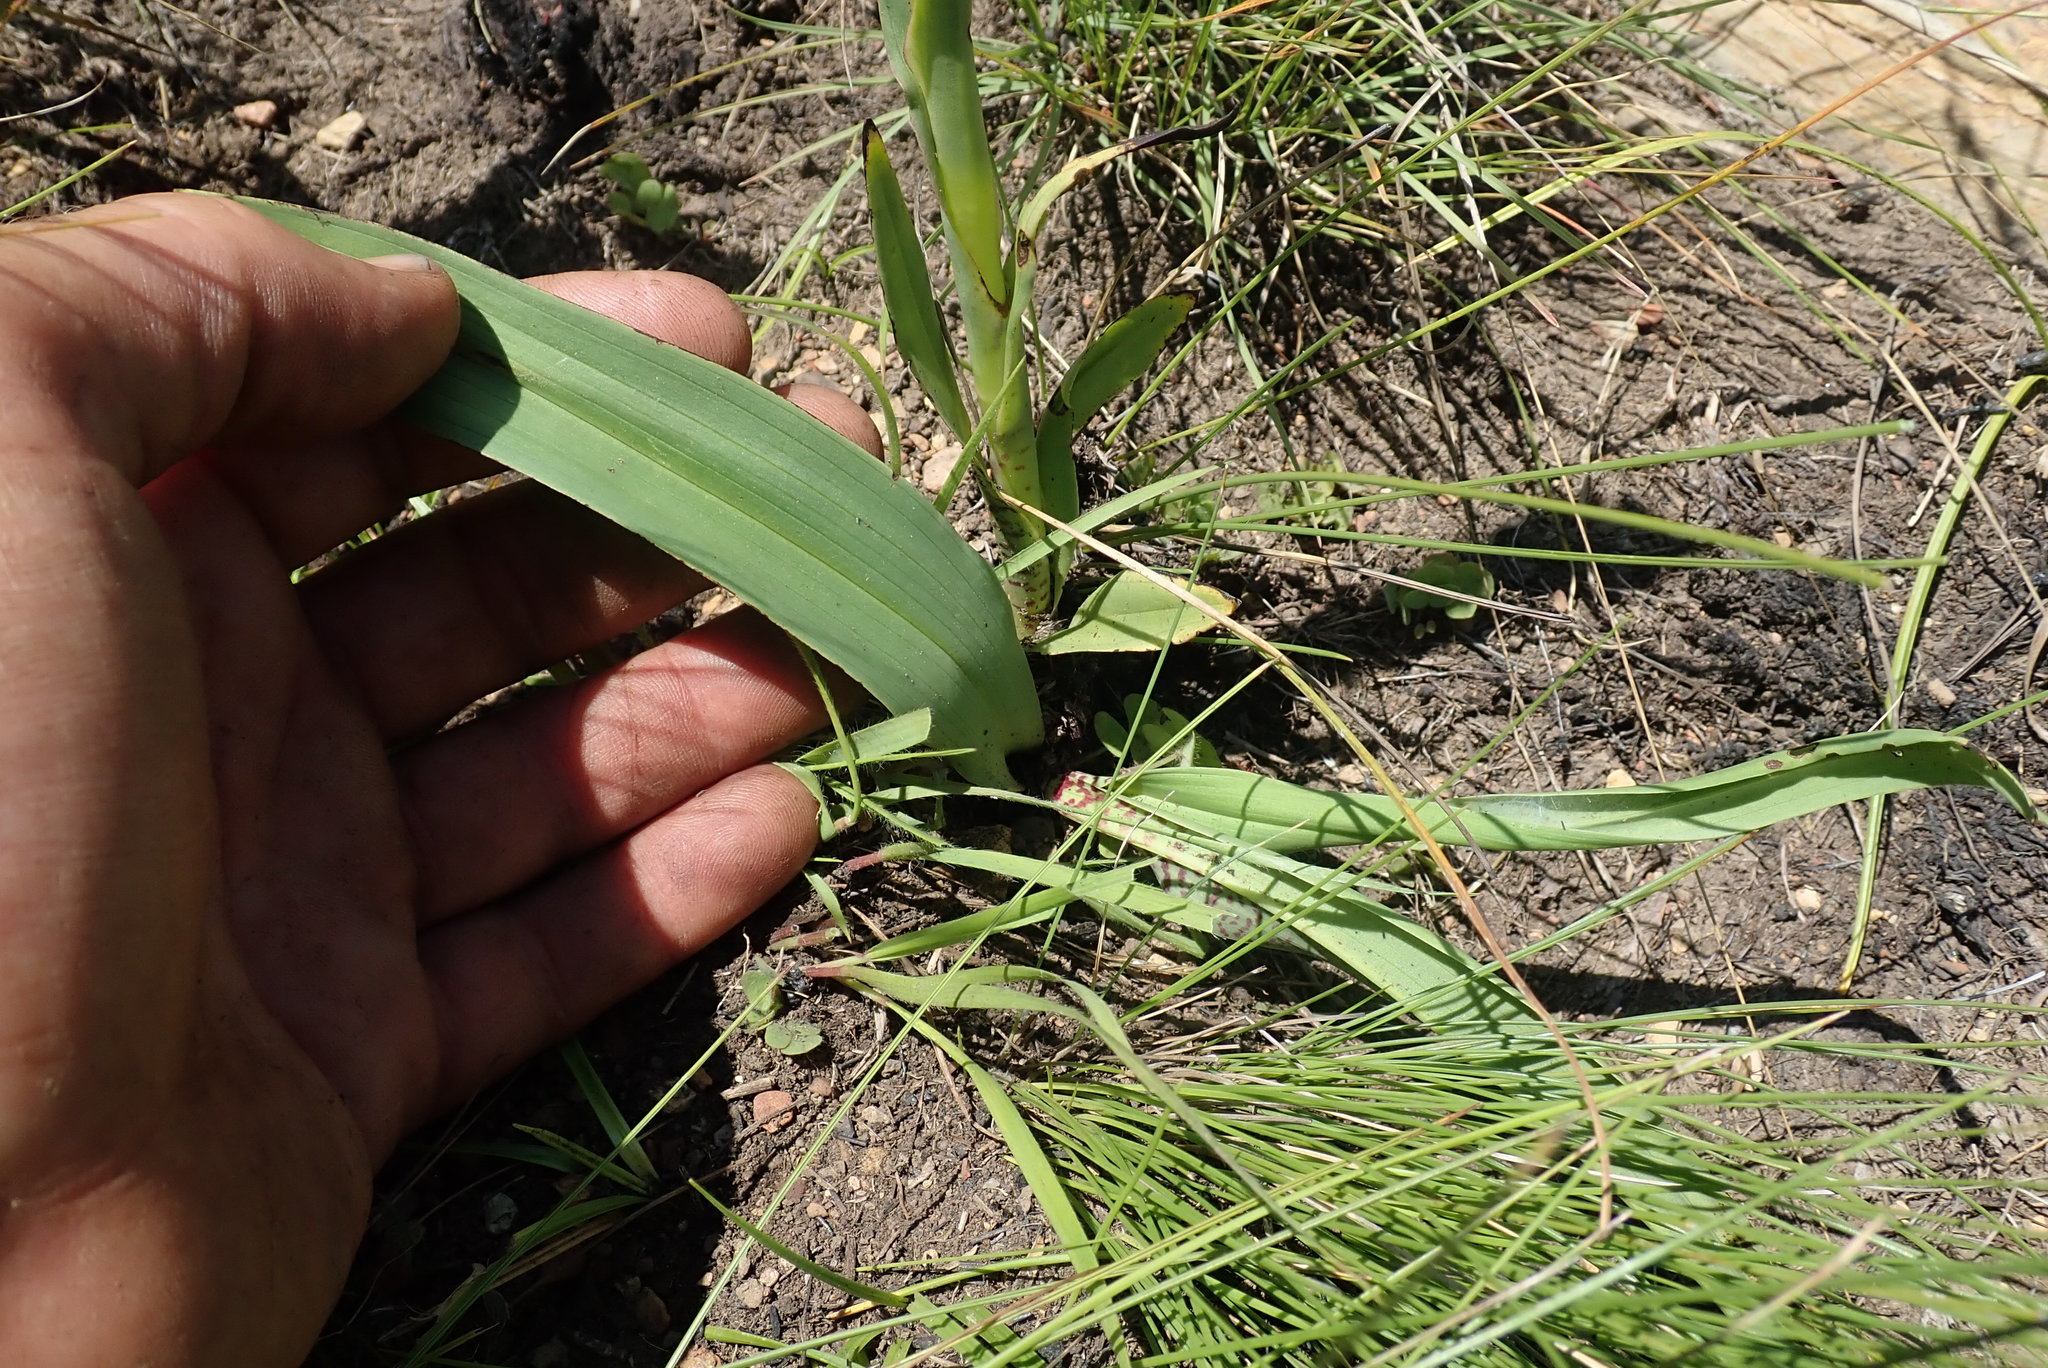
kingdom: Plantae
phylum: Tracheophyta
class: Liliopsida
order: Asparagales
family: Orchidaceae
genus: Disa
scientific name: Disa versicolor
